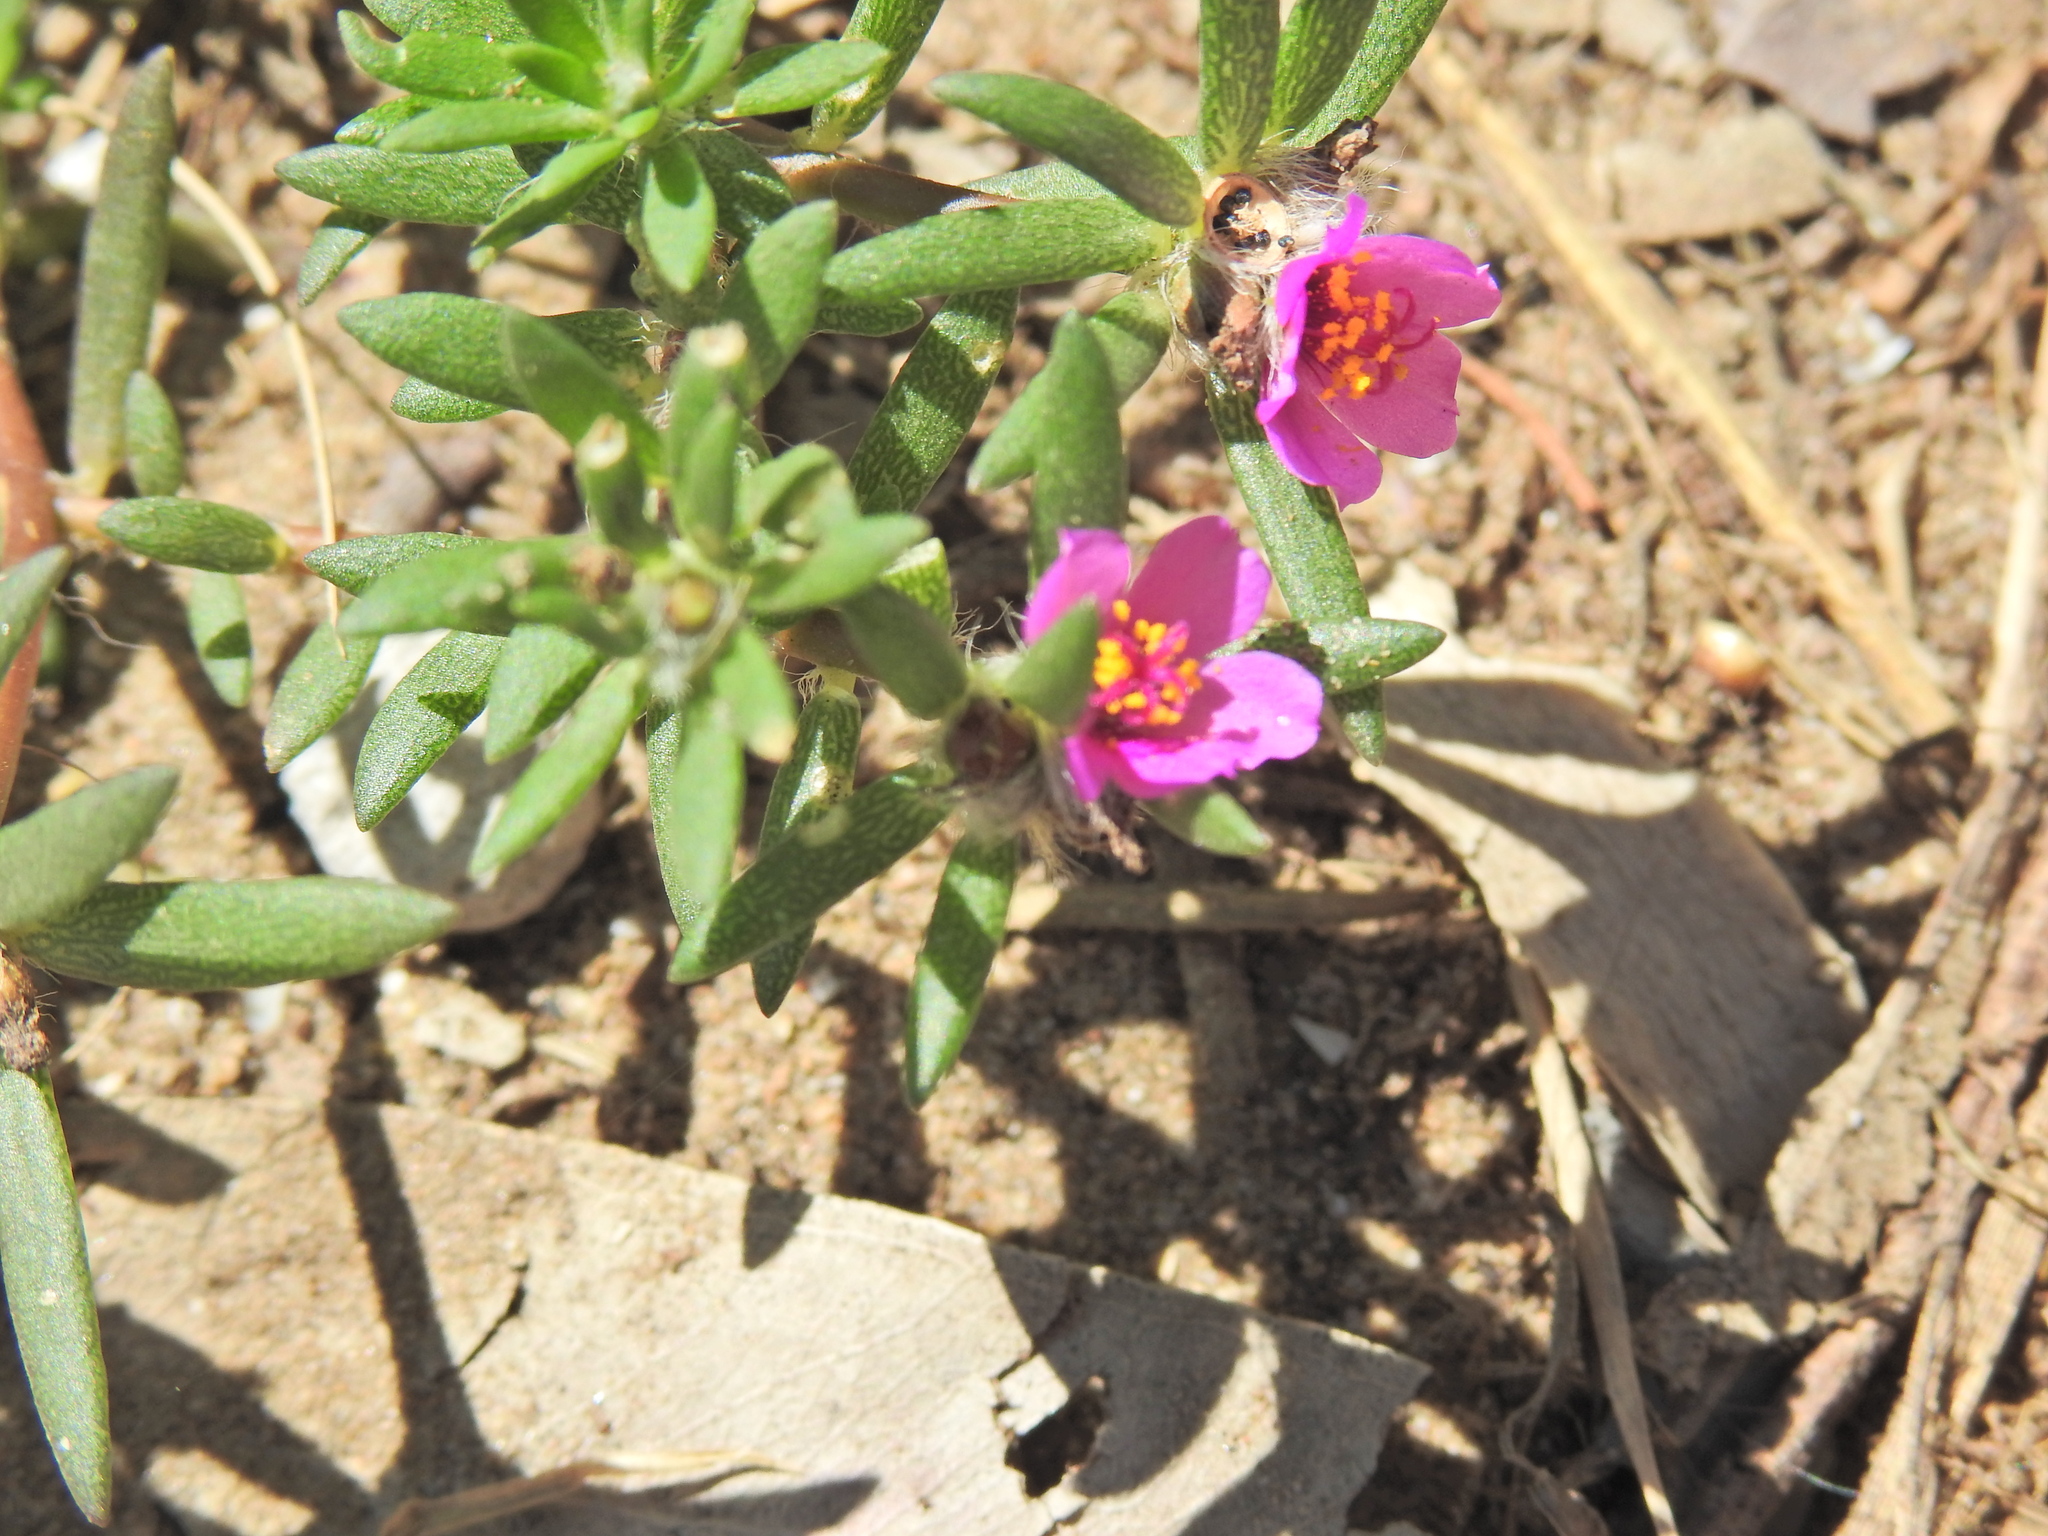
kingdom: Plantae
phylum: Tracheophyta
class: Magnoliopsida
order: Caryophyllales
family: Portulacaceae
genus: Portulaca
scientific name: Portulaca pilosa
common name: Kiss me quick
